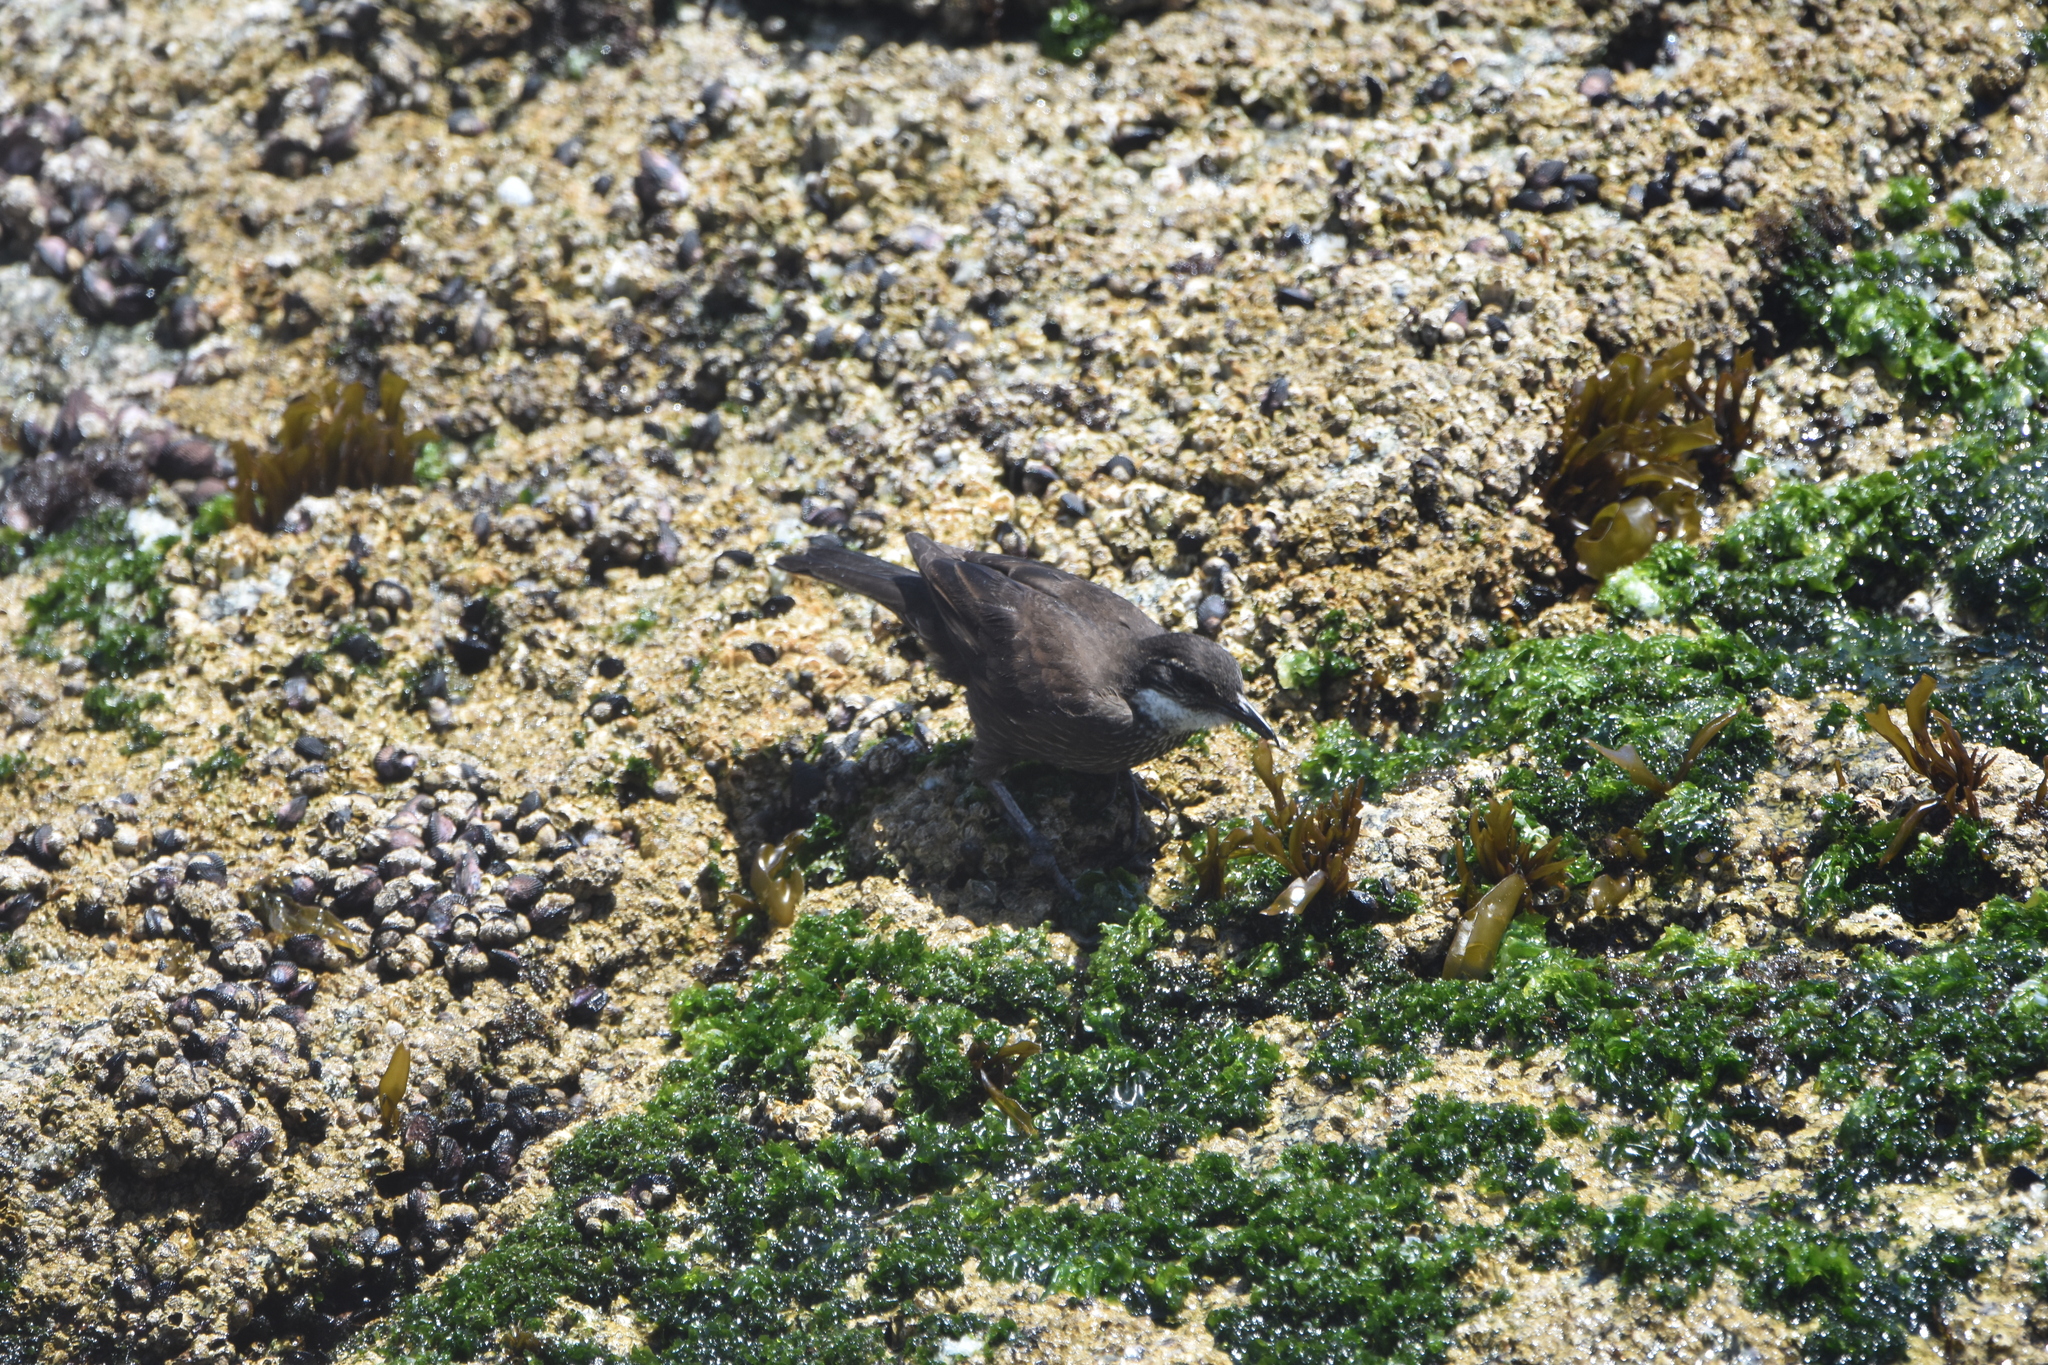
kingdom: Animalia
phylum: Chordata
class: Aves
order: Passeriformes
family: Furnariidae
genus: Cinclodes
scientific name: Cinclodes nigrofumosus
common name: Chilean seaside cinclodes
